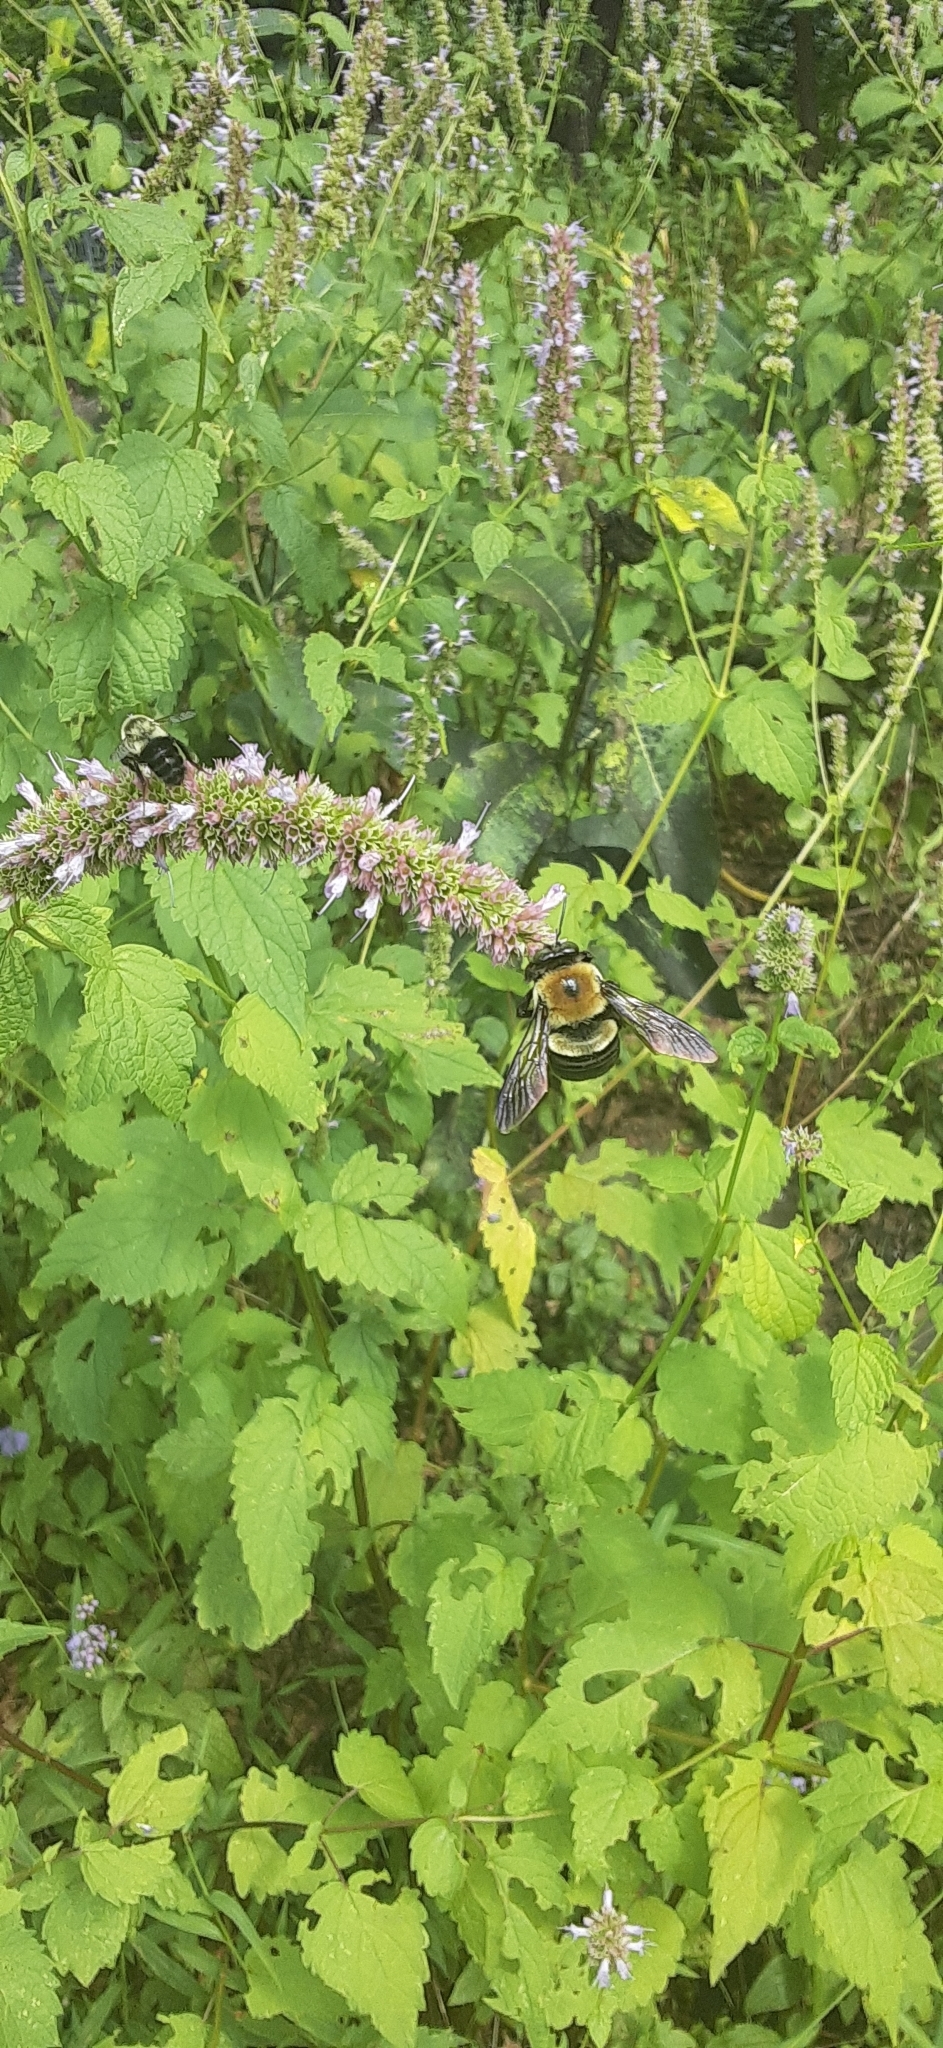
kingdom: Animalia
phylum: Arthropoda
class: Insecta
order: Hymenoptera
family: Apidae
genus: Xylocopa
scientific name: Xylocopa virginica
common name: Carpenter bee
